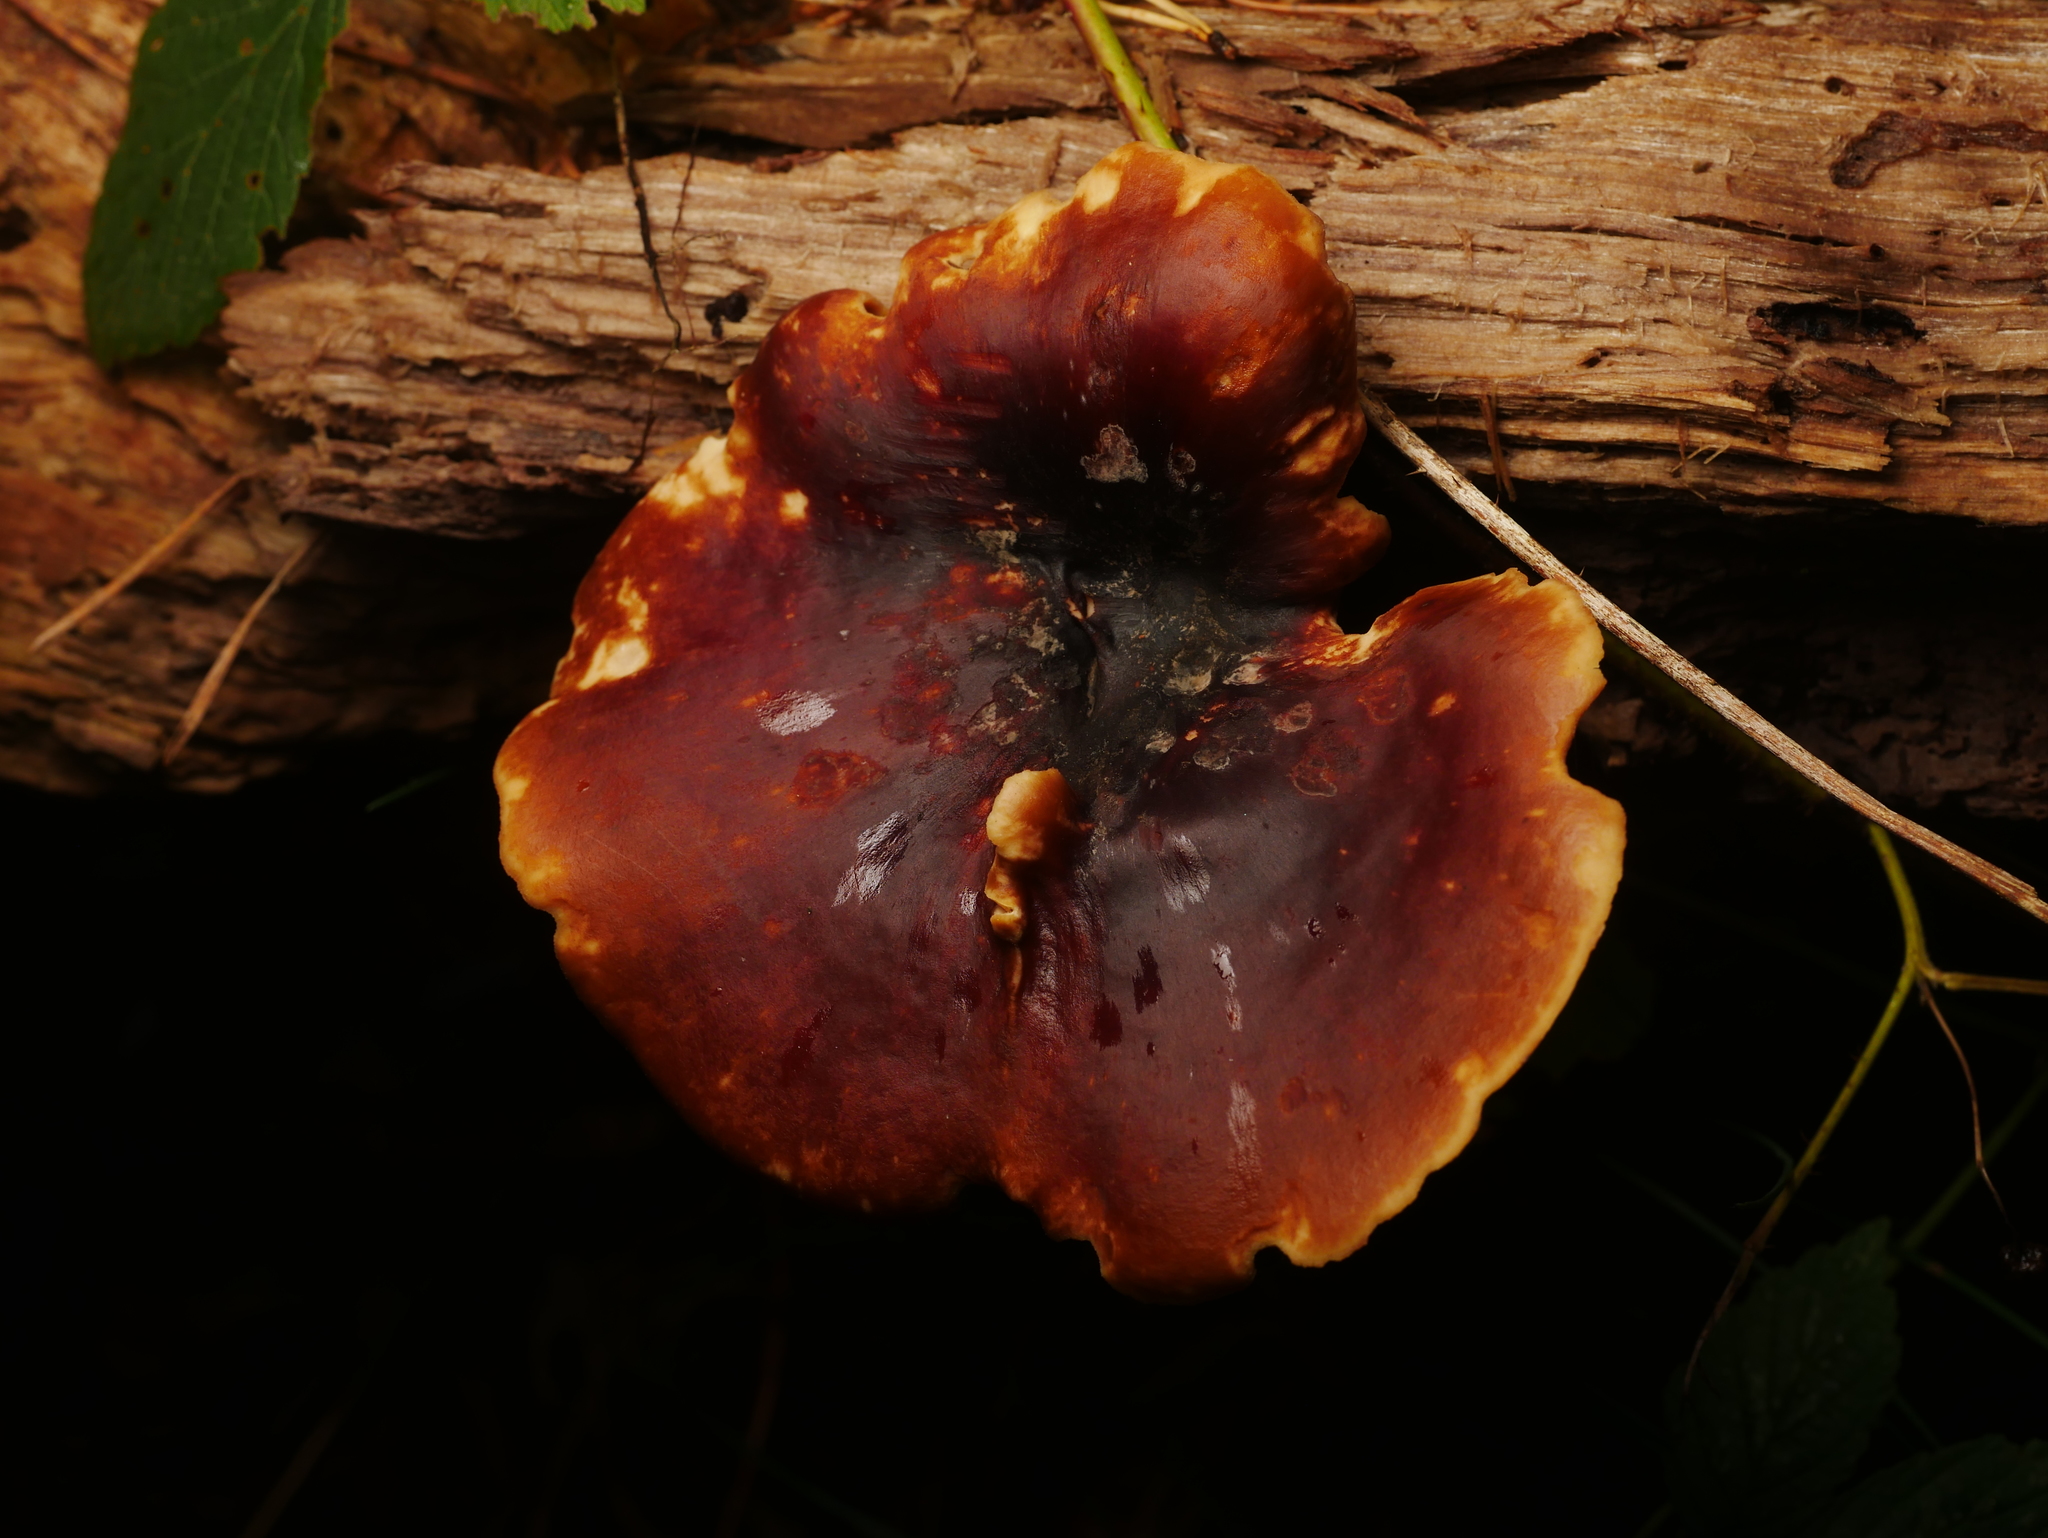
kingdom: Fungi
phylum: Basidiomycota
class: Agaricomycetes
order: Polyporales
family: Polyporaceae
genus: Picipes
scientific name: Picipes badius
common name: Bay polypore
